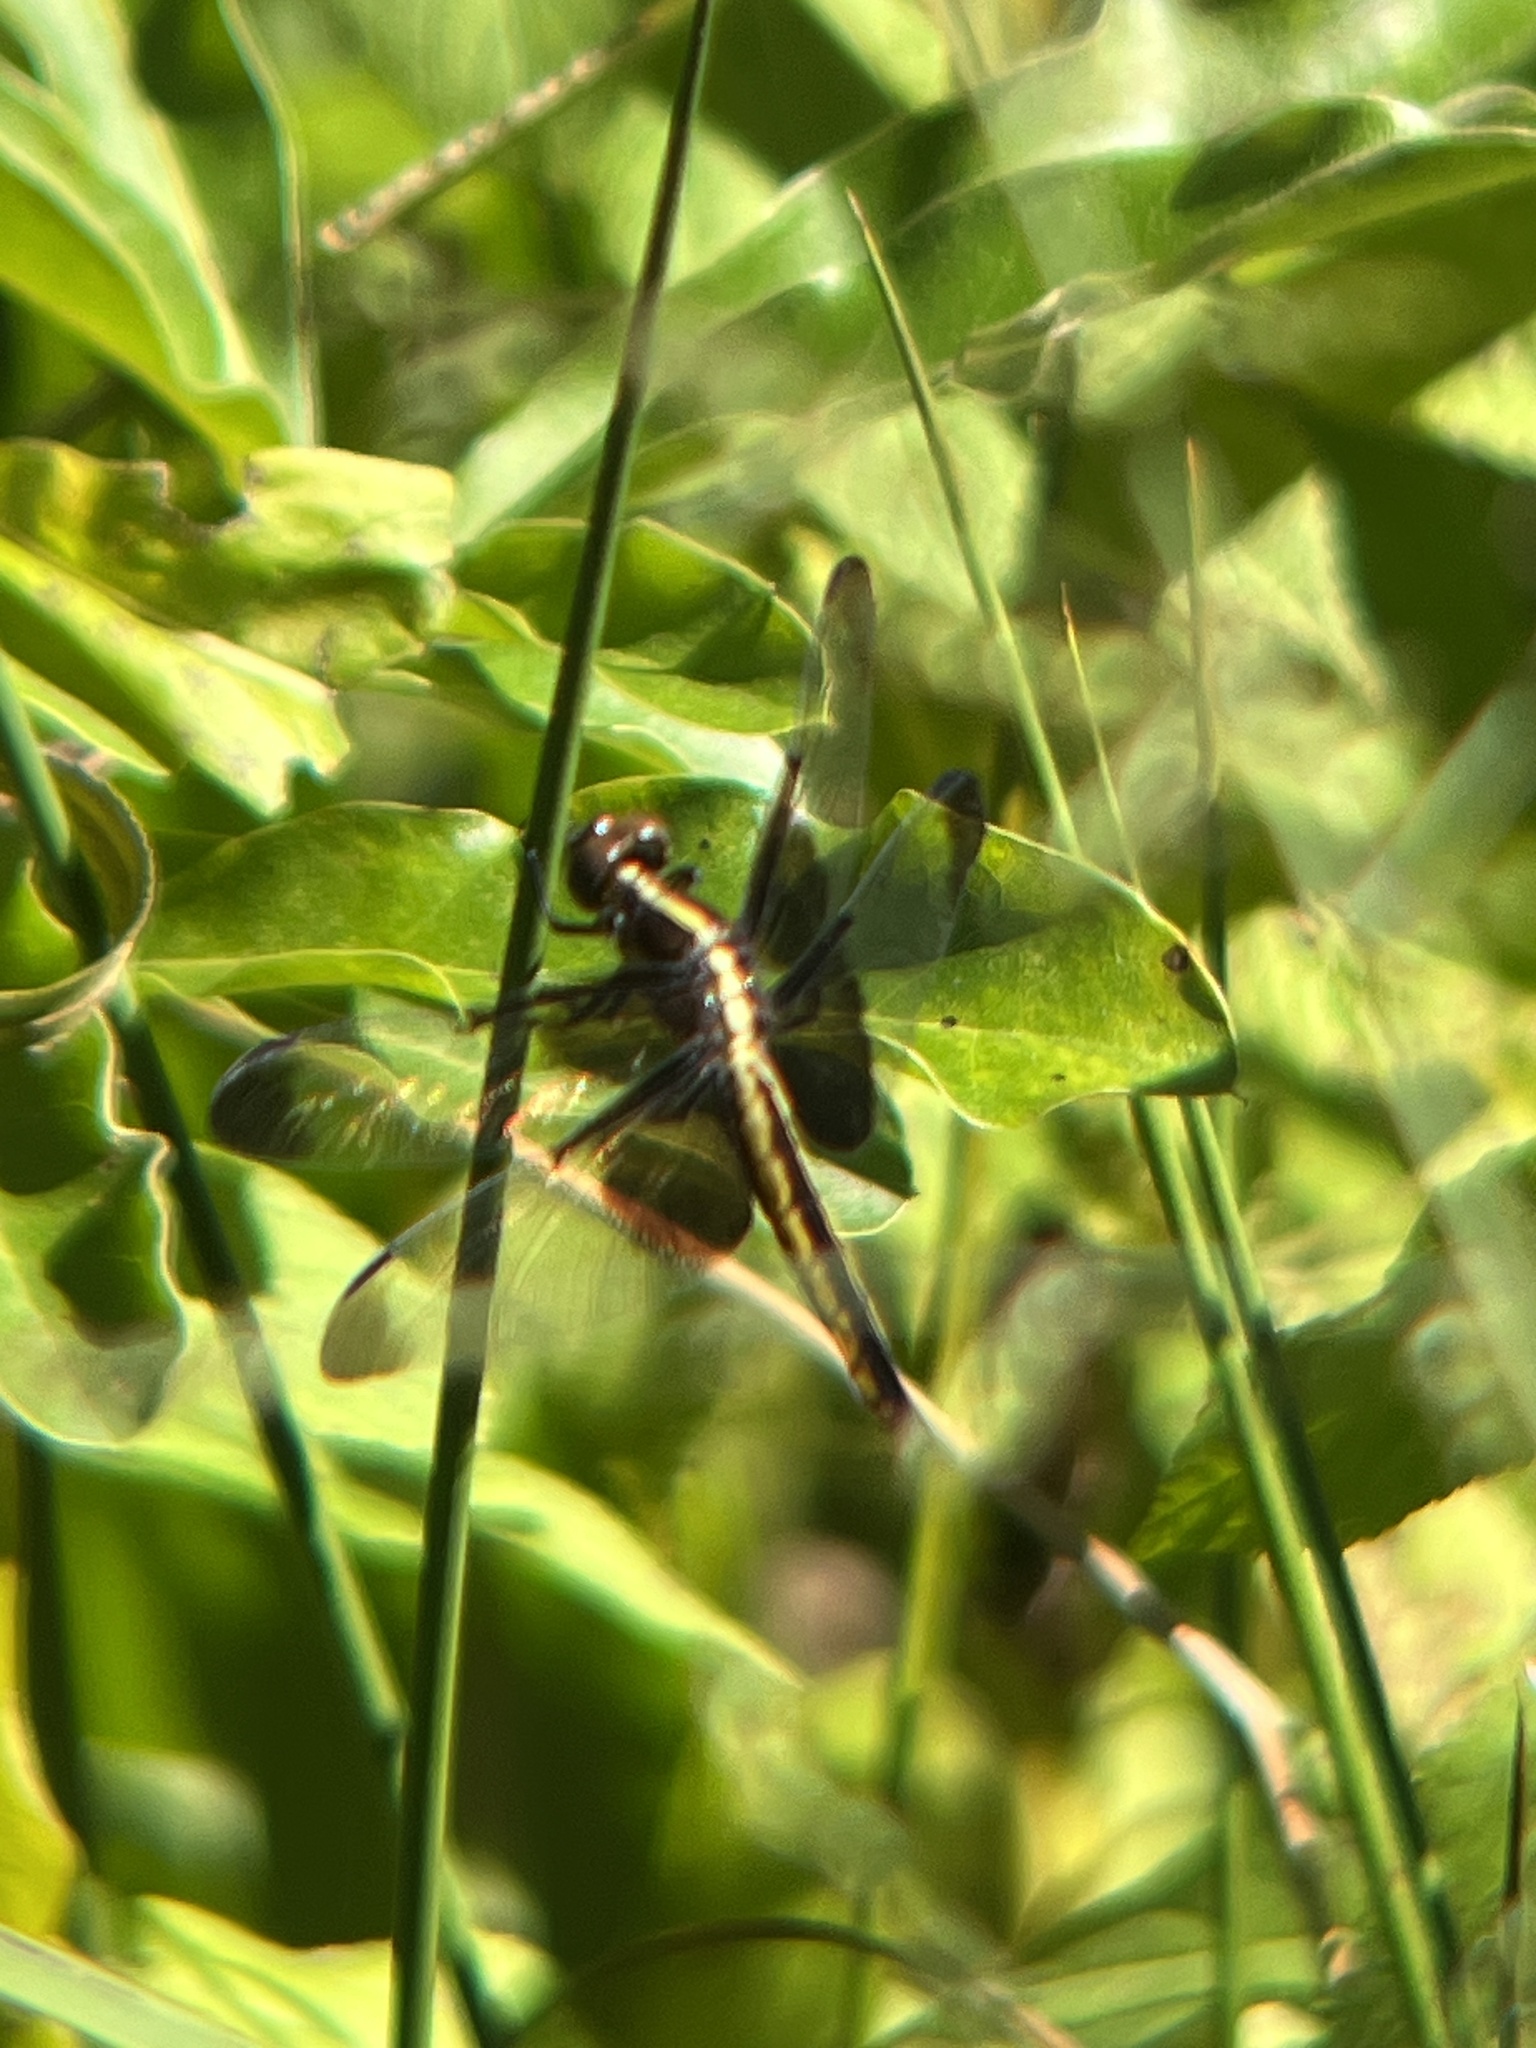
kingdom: Animalia
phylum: Arthropoda
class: Insecta
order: Odonata
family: Libellulidae
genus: Libellula
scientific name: Libellula luctuosa
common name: Widow skimmer
